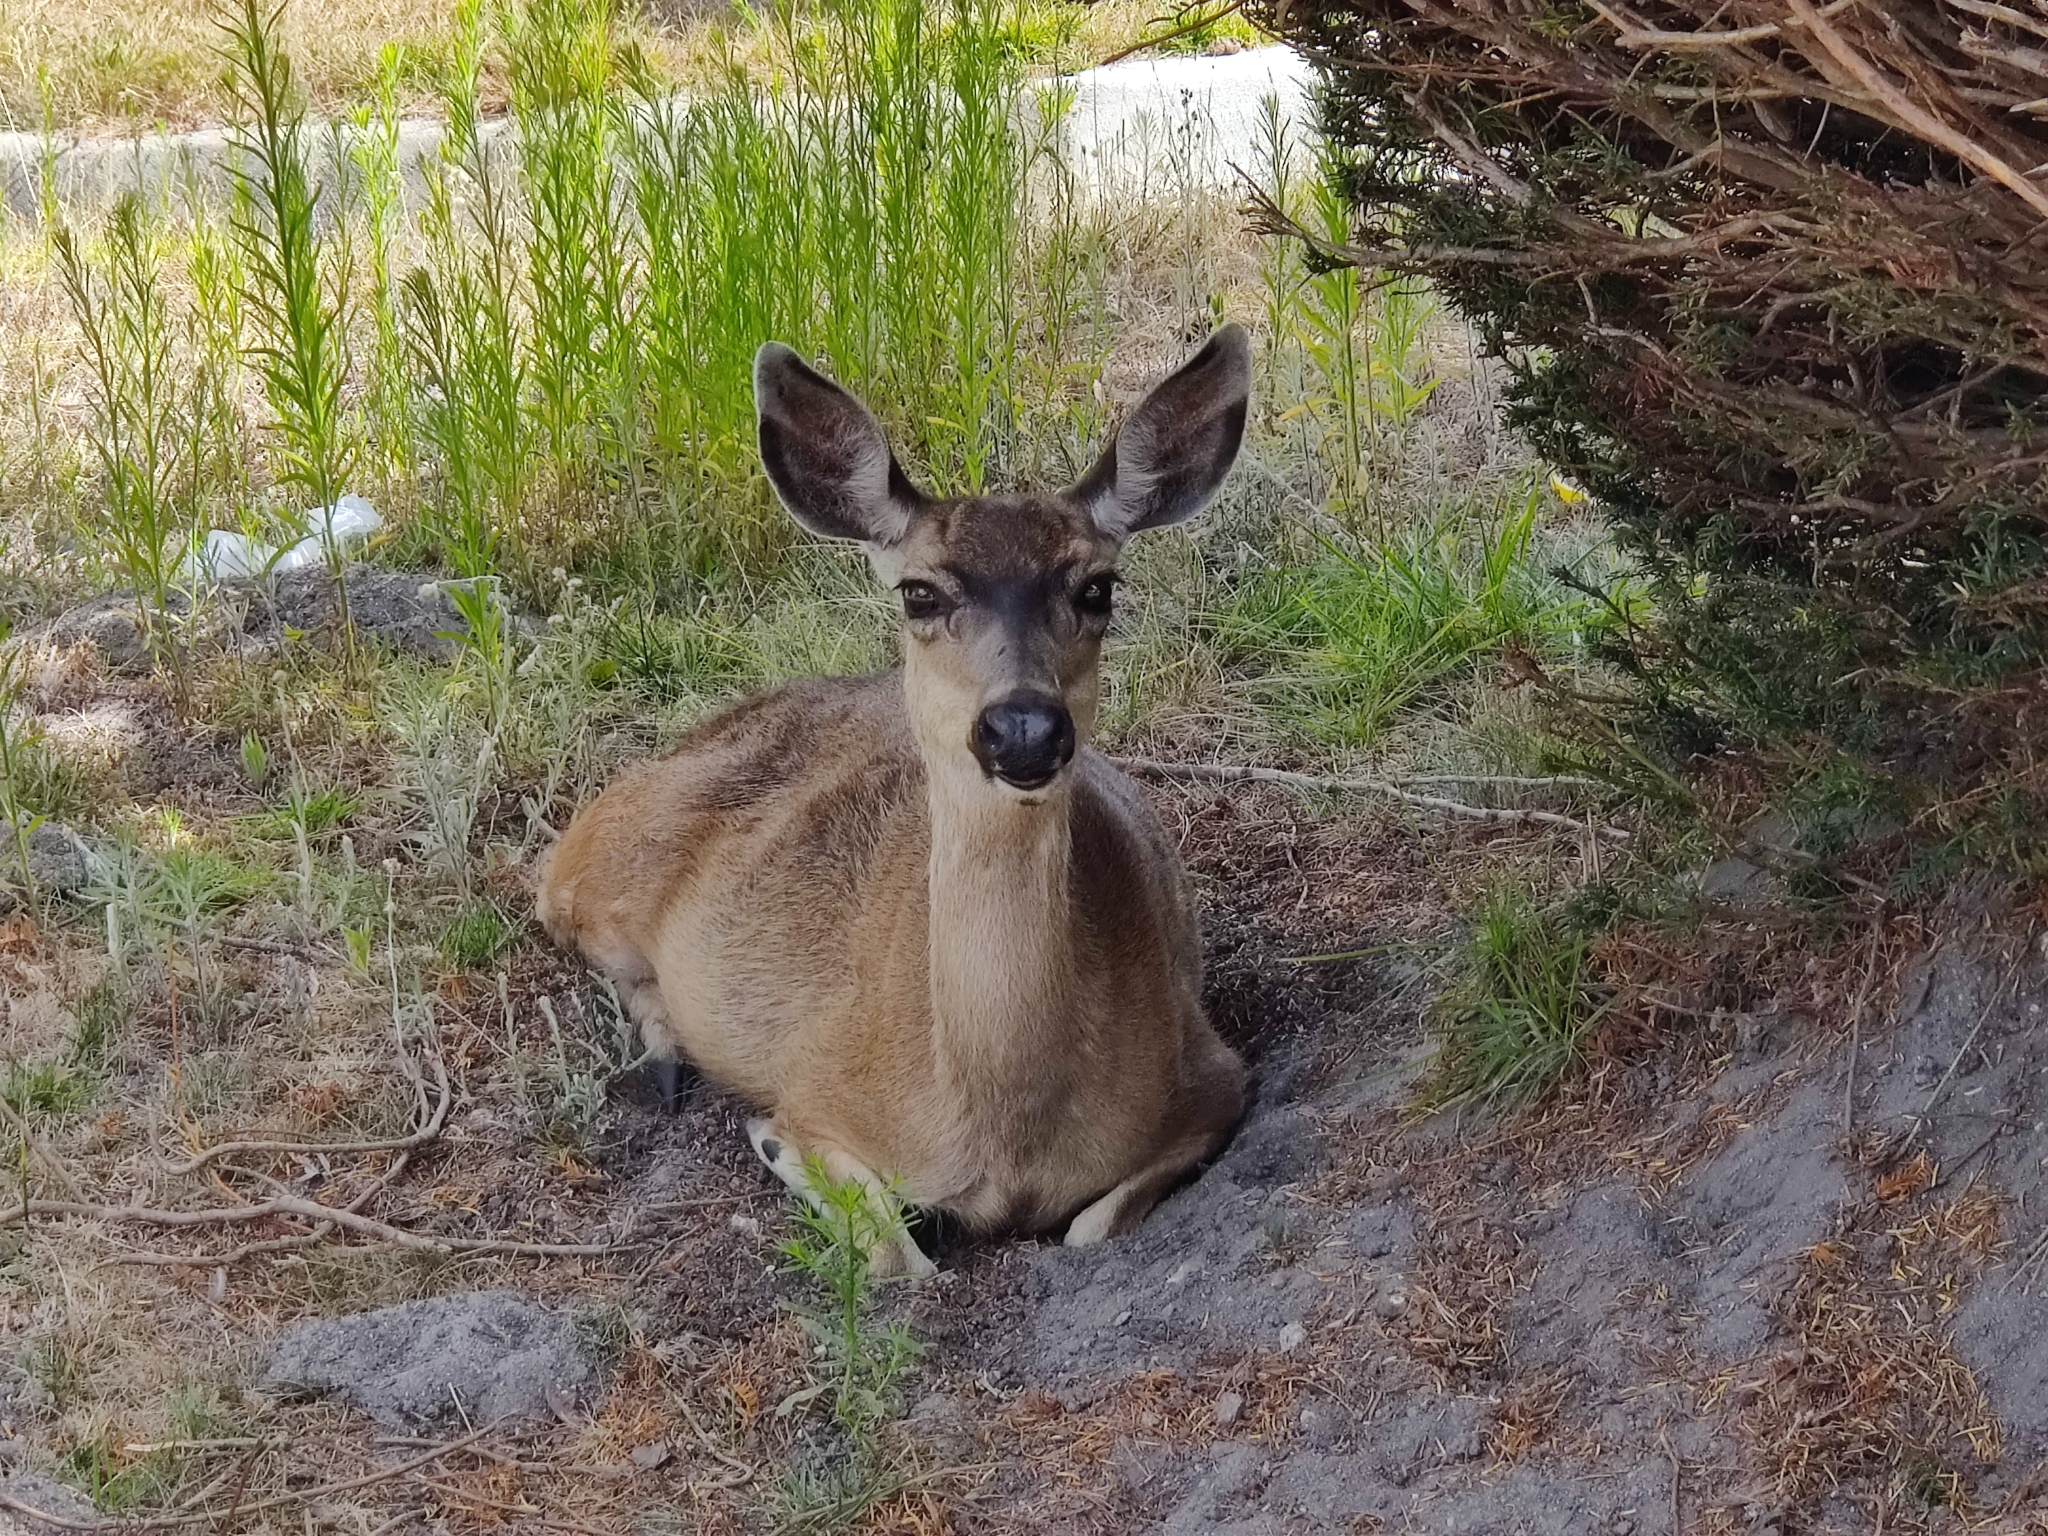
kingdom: Animalia
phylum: Chordata
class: Mammalia
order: Artiodactyla
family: Cervidae
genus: Odocoileus
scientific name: Odocoileus hemionus
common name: Mule deer
